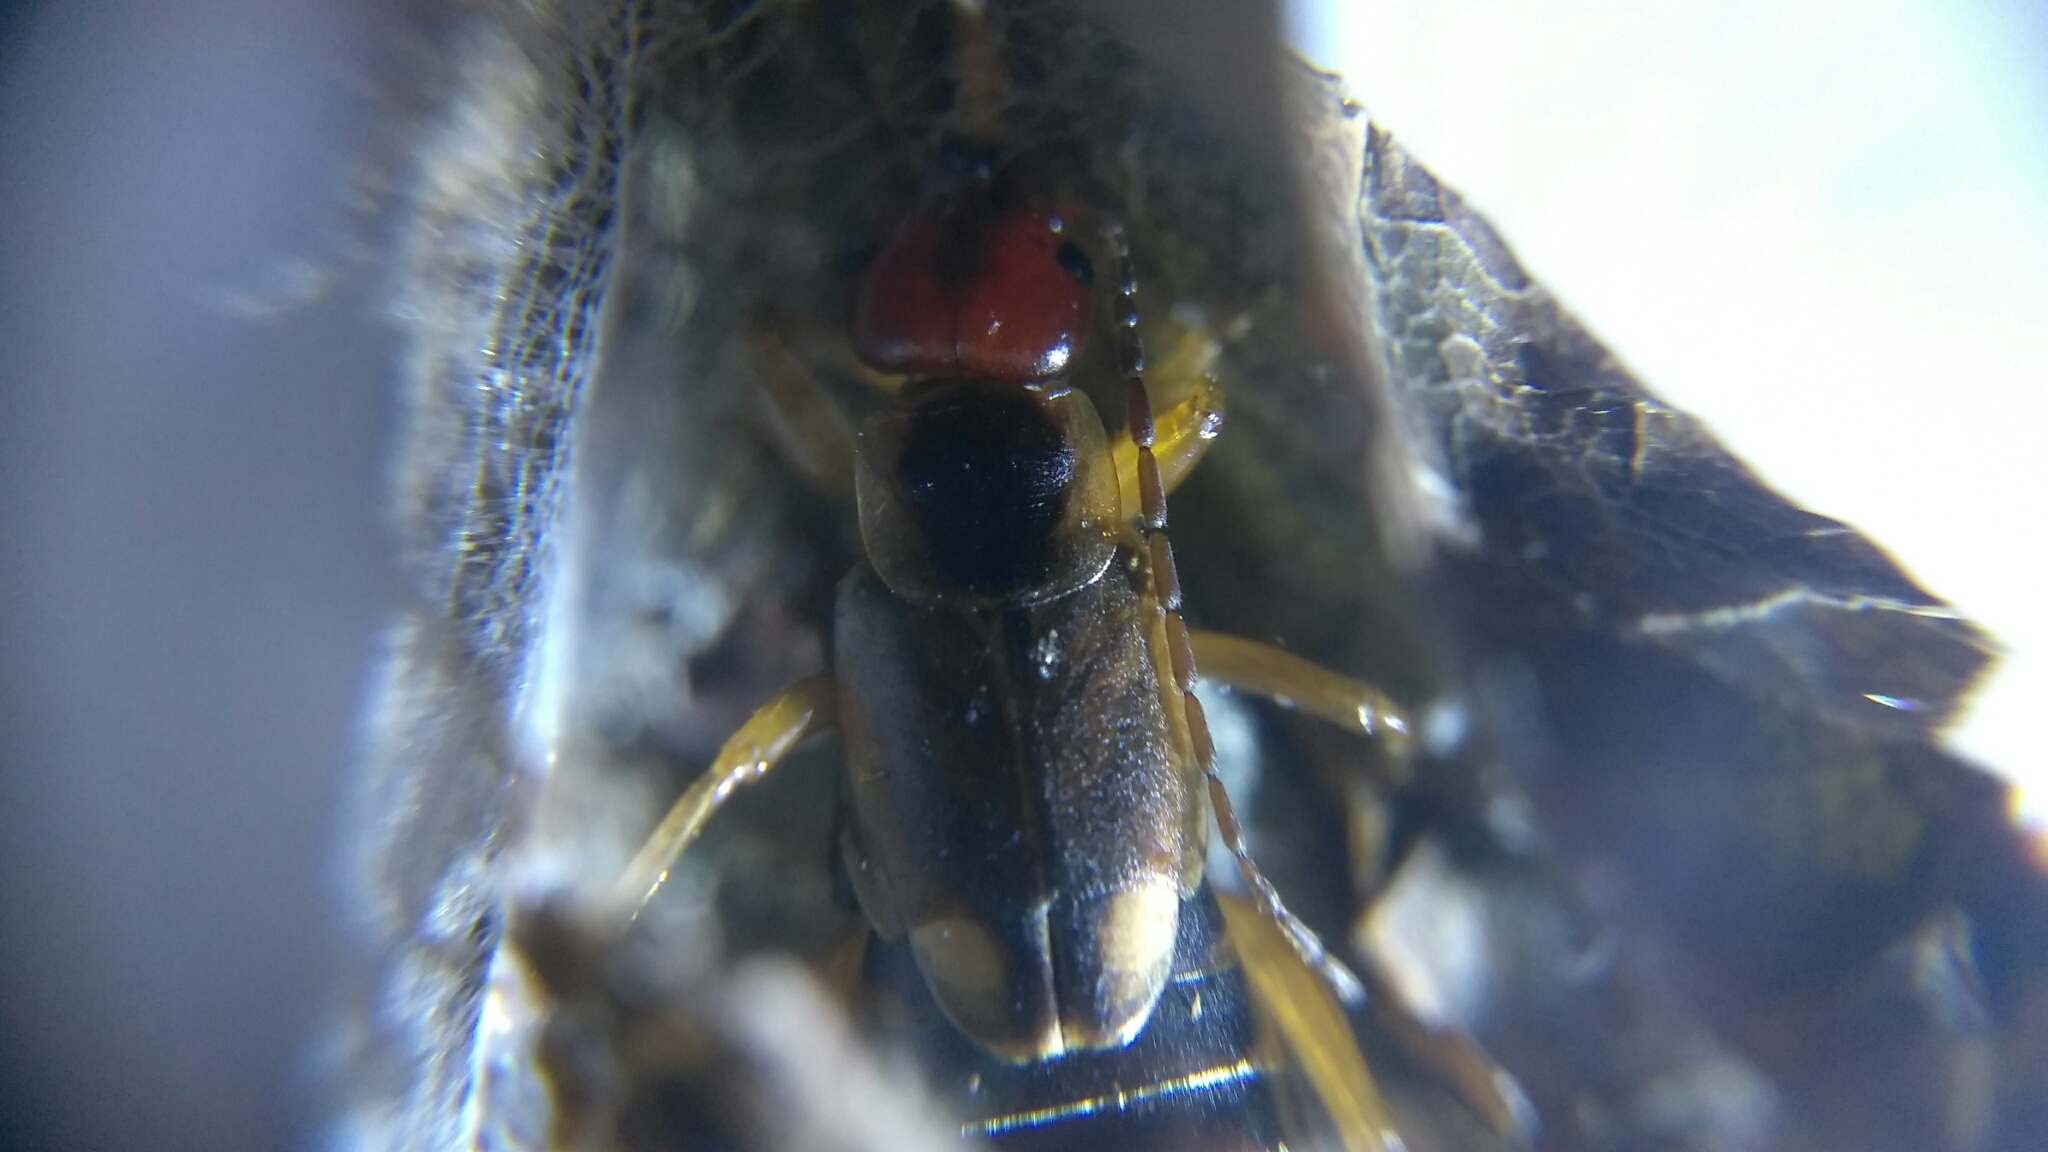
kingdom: Animalia
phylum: Arthropoda
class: Insecta
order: Dermaptera
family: Forficulidae
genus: Forficula
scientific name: Forficula
